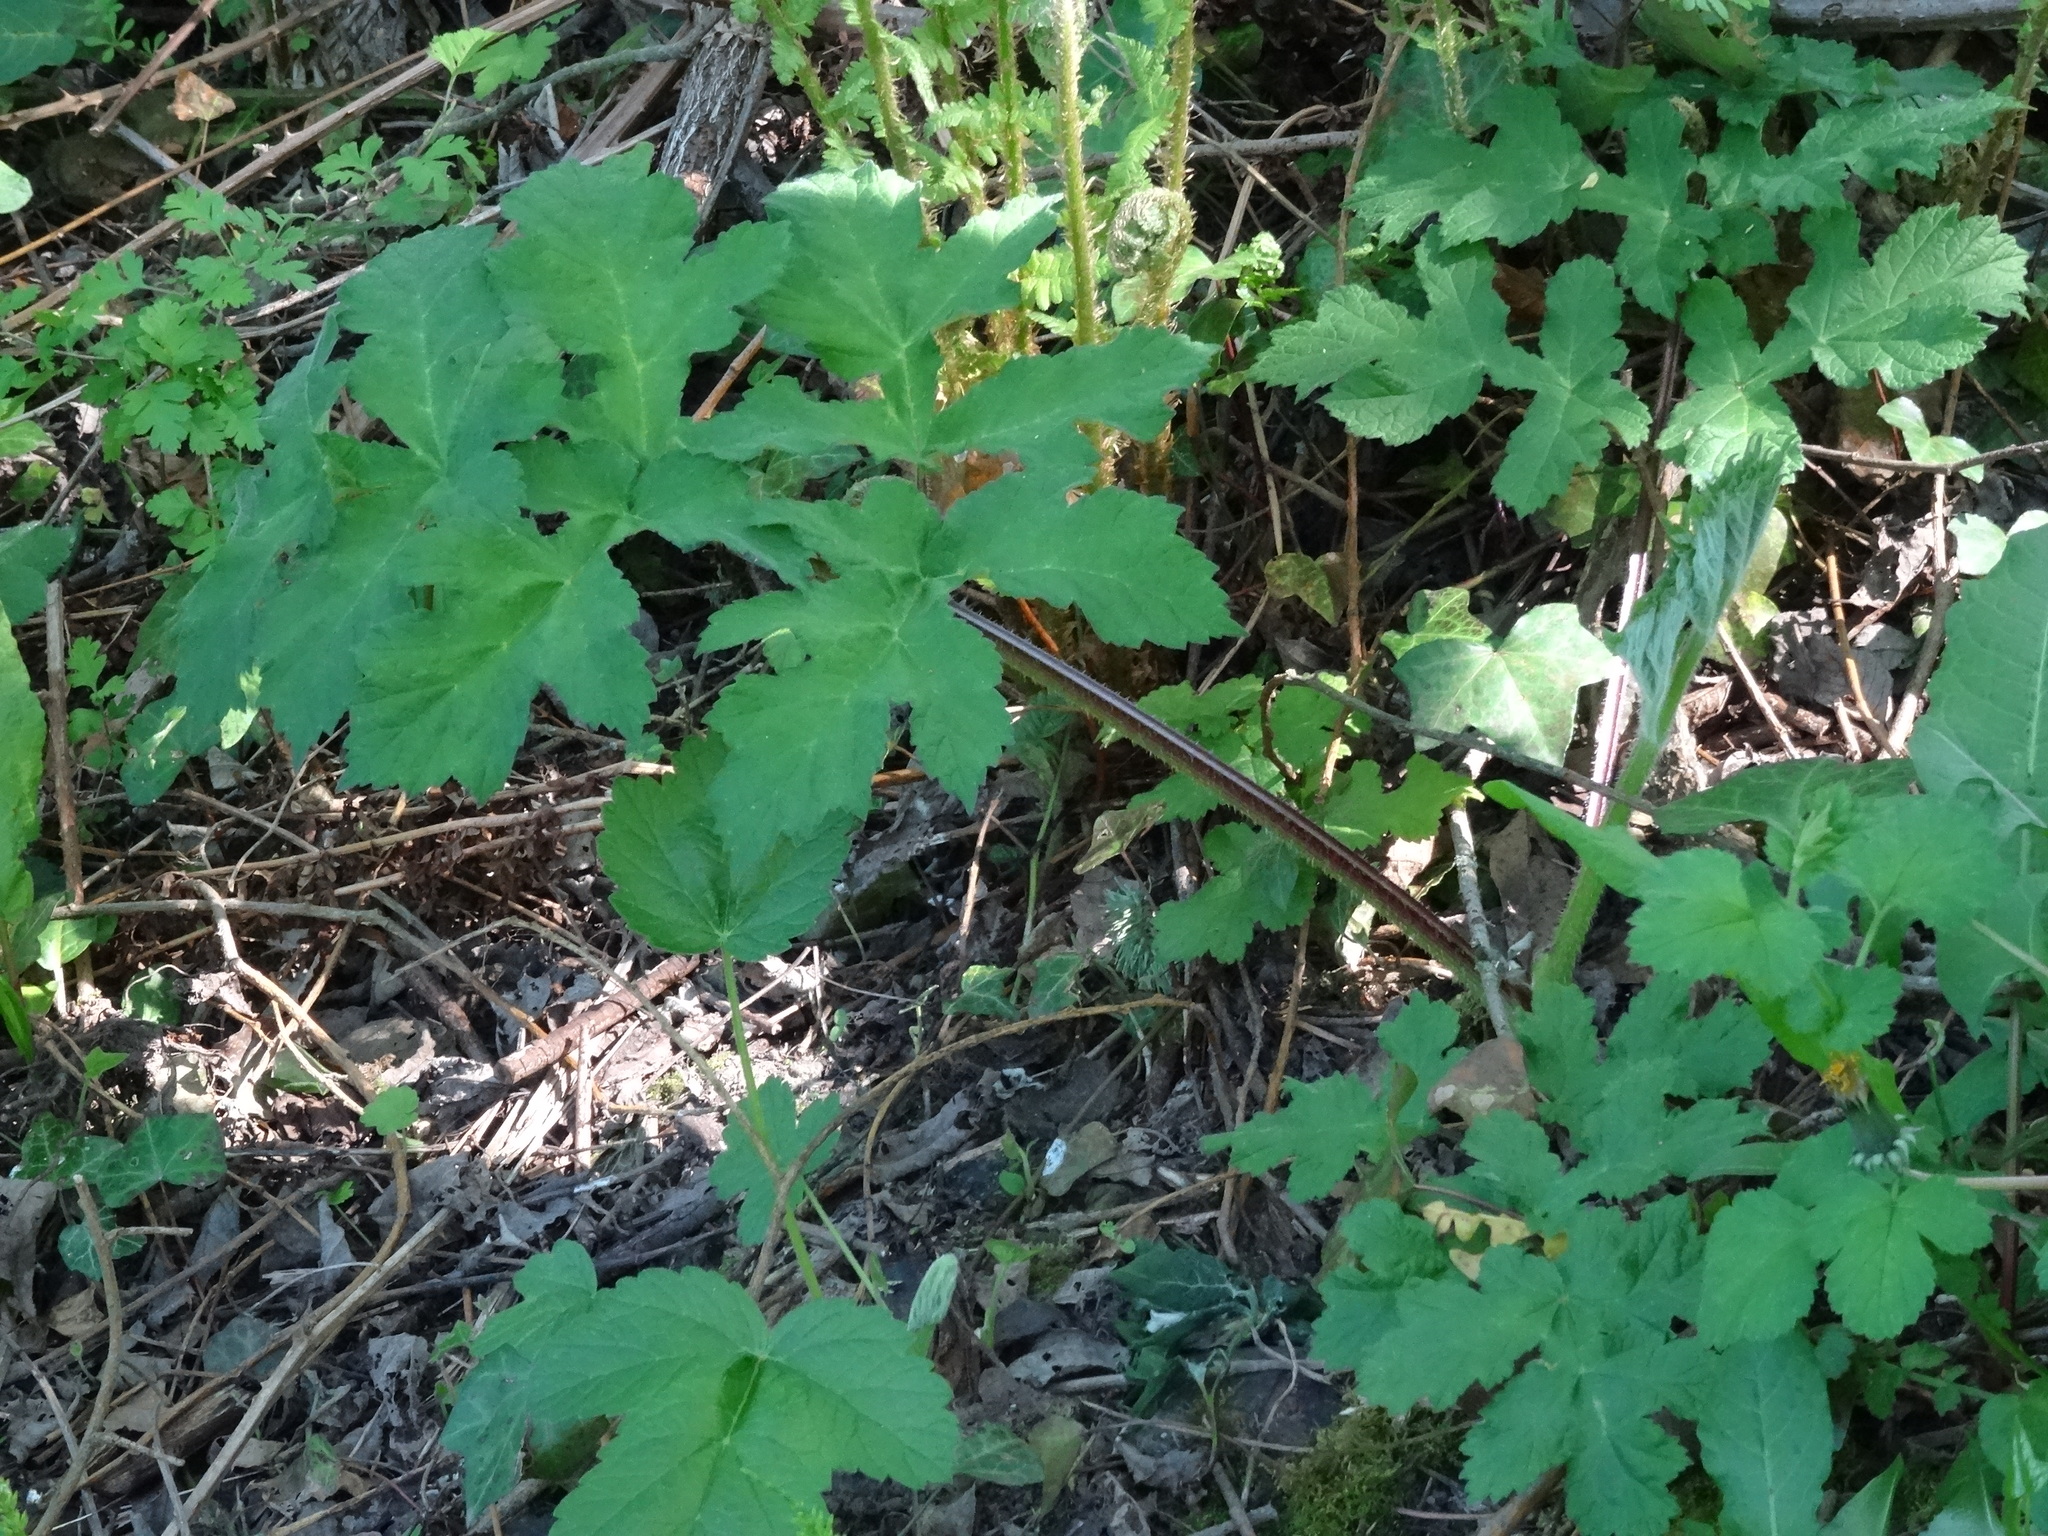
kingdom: Plantae
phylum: Tracheophyta
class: Magnoliopsida
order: Apiales
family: Apiaceae
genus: Heracleum
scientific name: Heracleum sphondylium
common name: Hogweed
